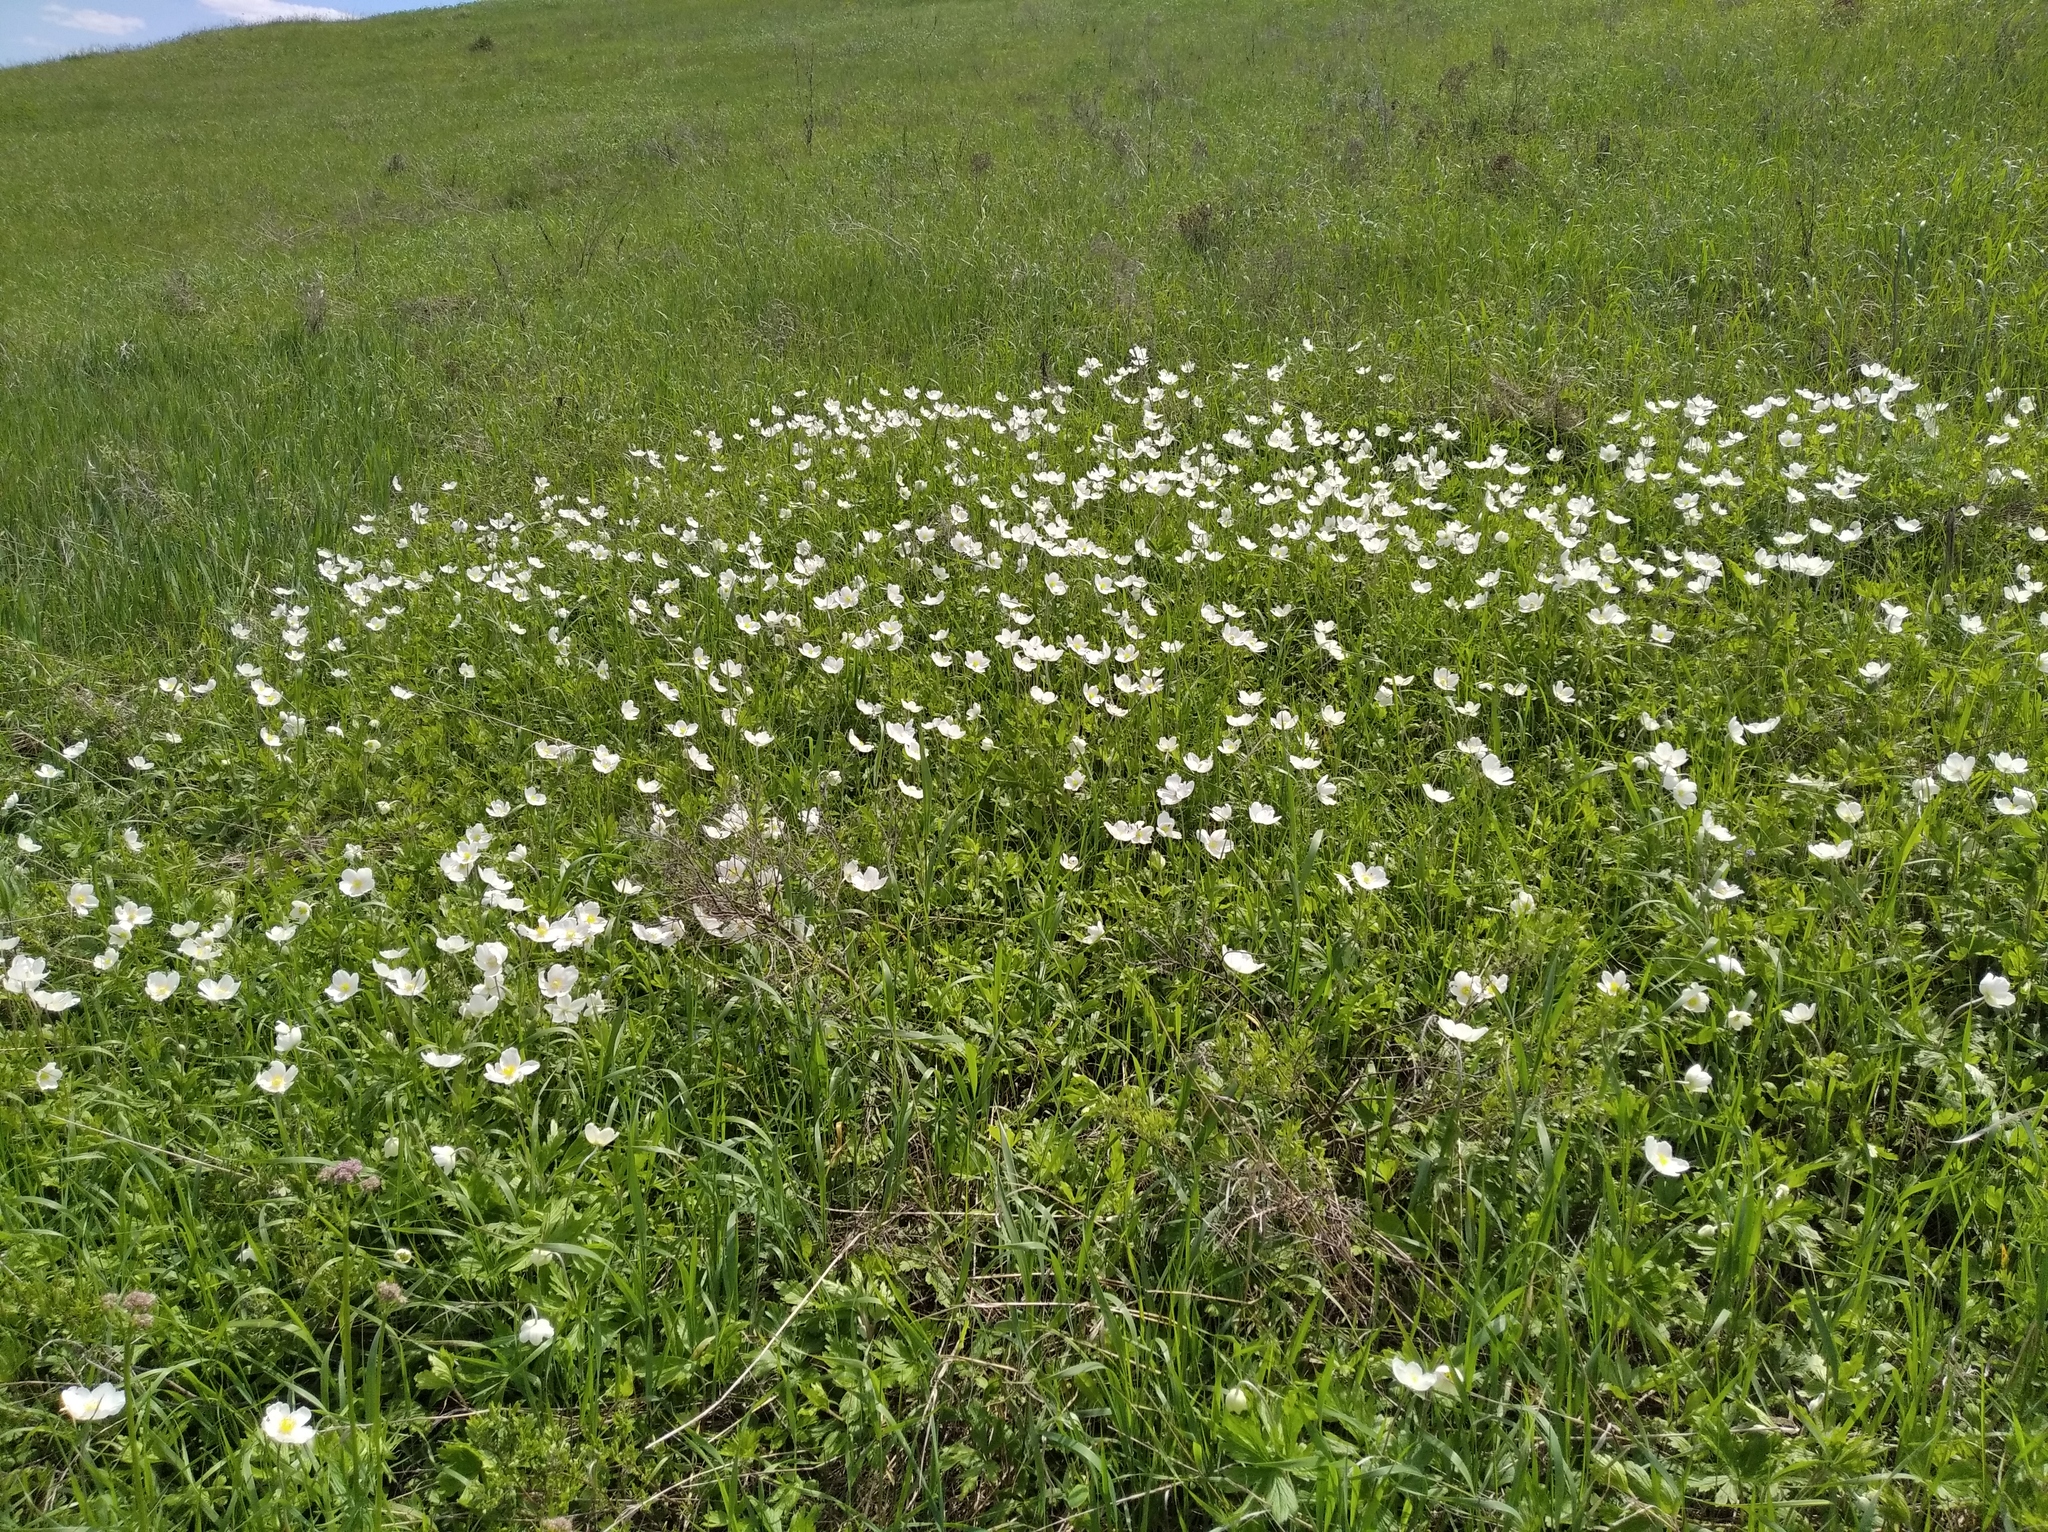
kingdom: Plantae
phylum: Tracheophyta
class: Magnoliopsida
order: Ranunculales
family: Ranunculaceae
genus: Anemone
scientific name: Anemone sylvestris
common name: Snowdrop anemone
